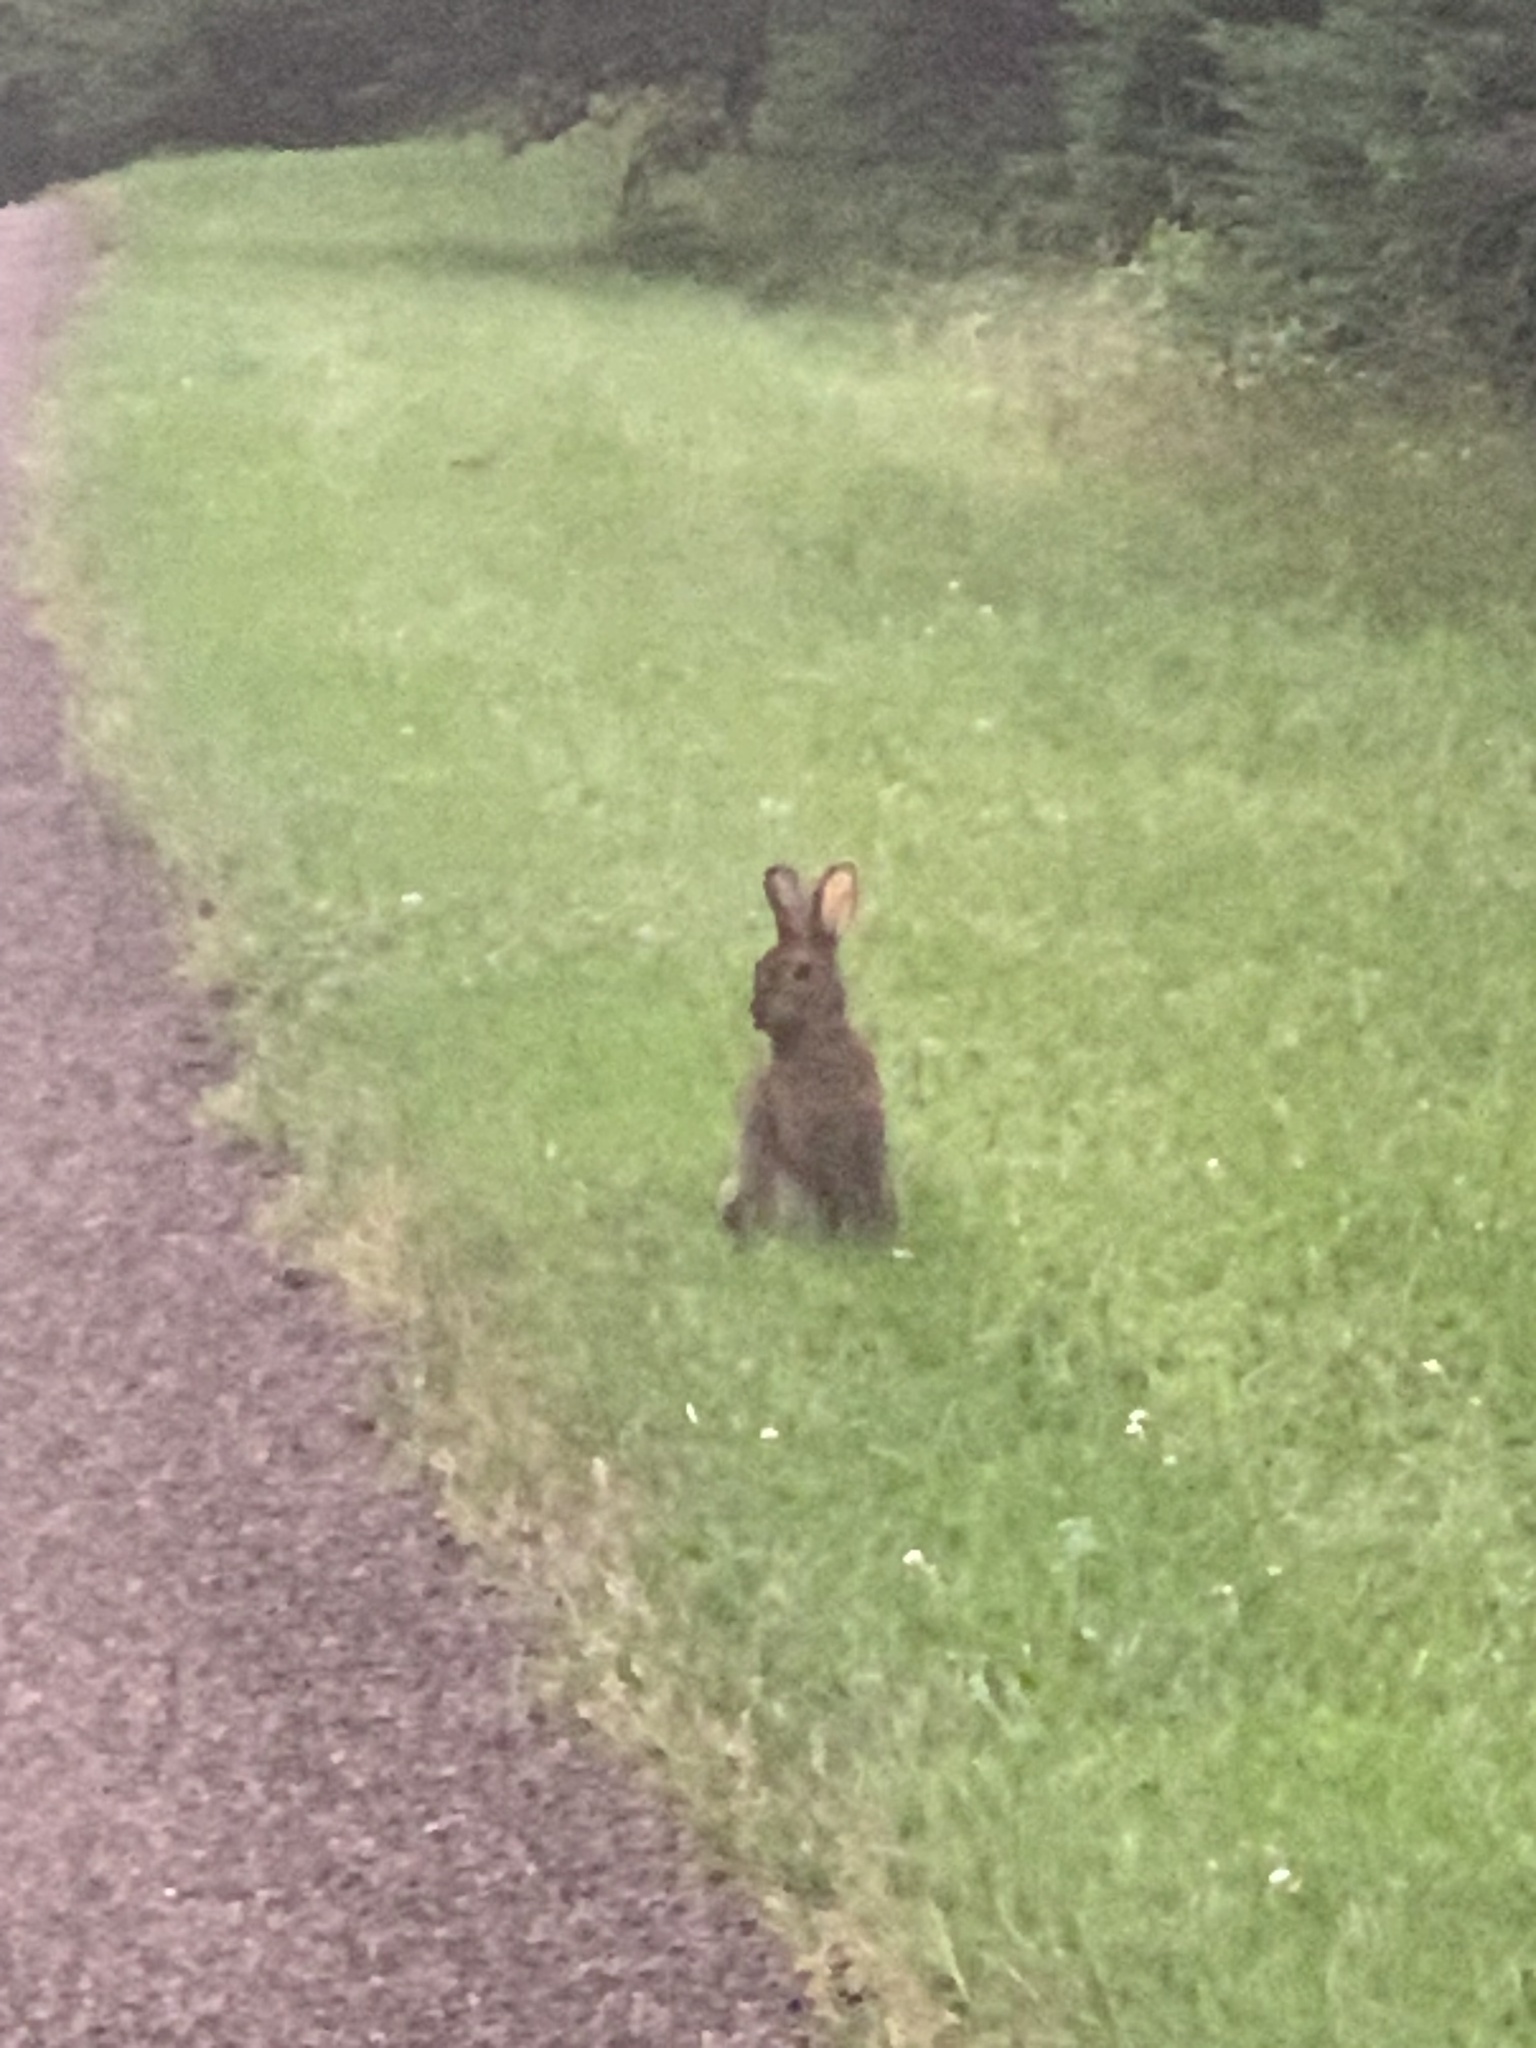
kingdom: Animalia
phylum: Chordata
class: Mammalia
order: Lagomorpha
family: Leporidae
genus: Lepus
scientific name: Lepus americanus
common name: Snowshoe hare
